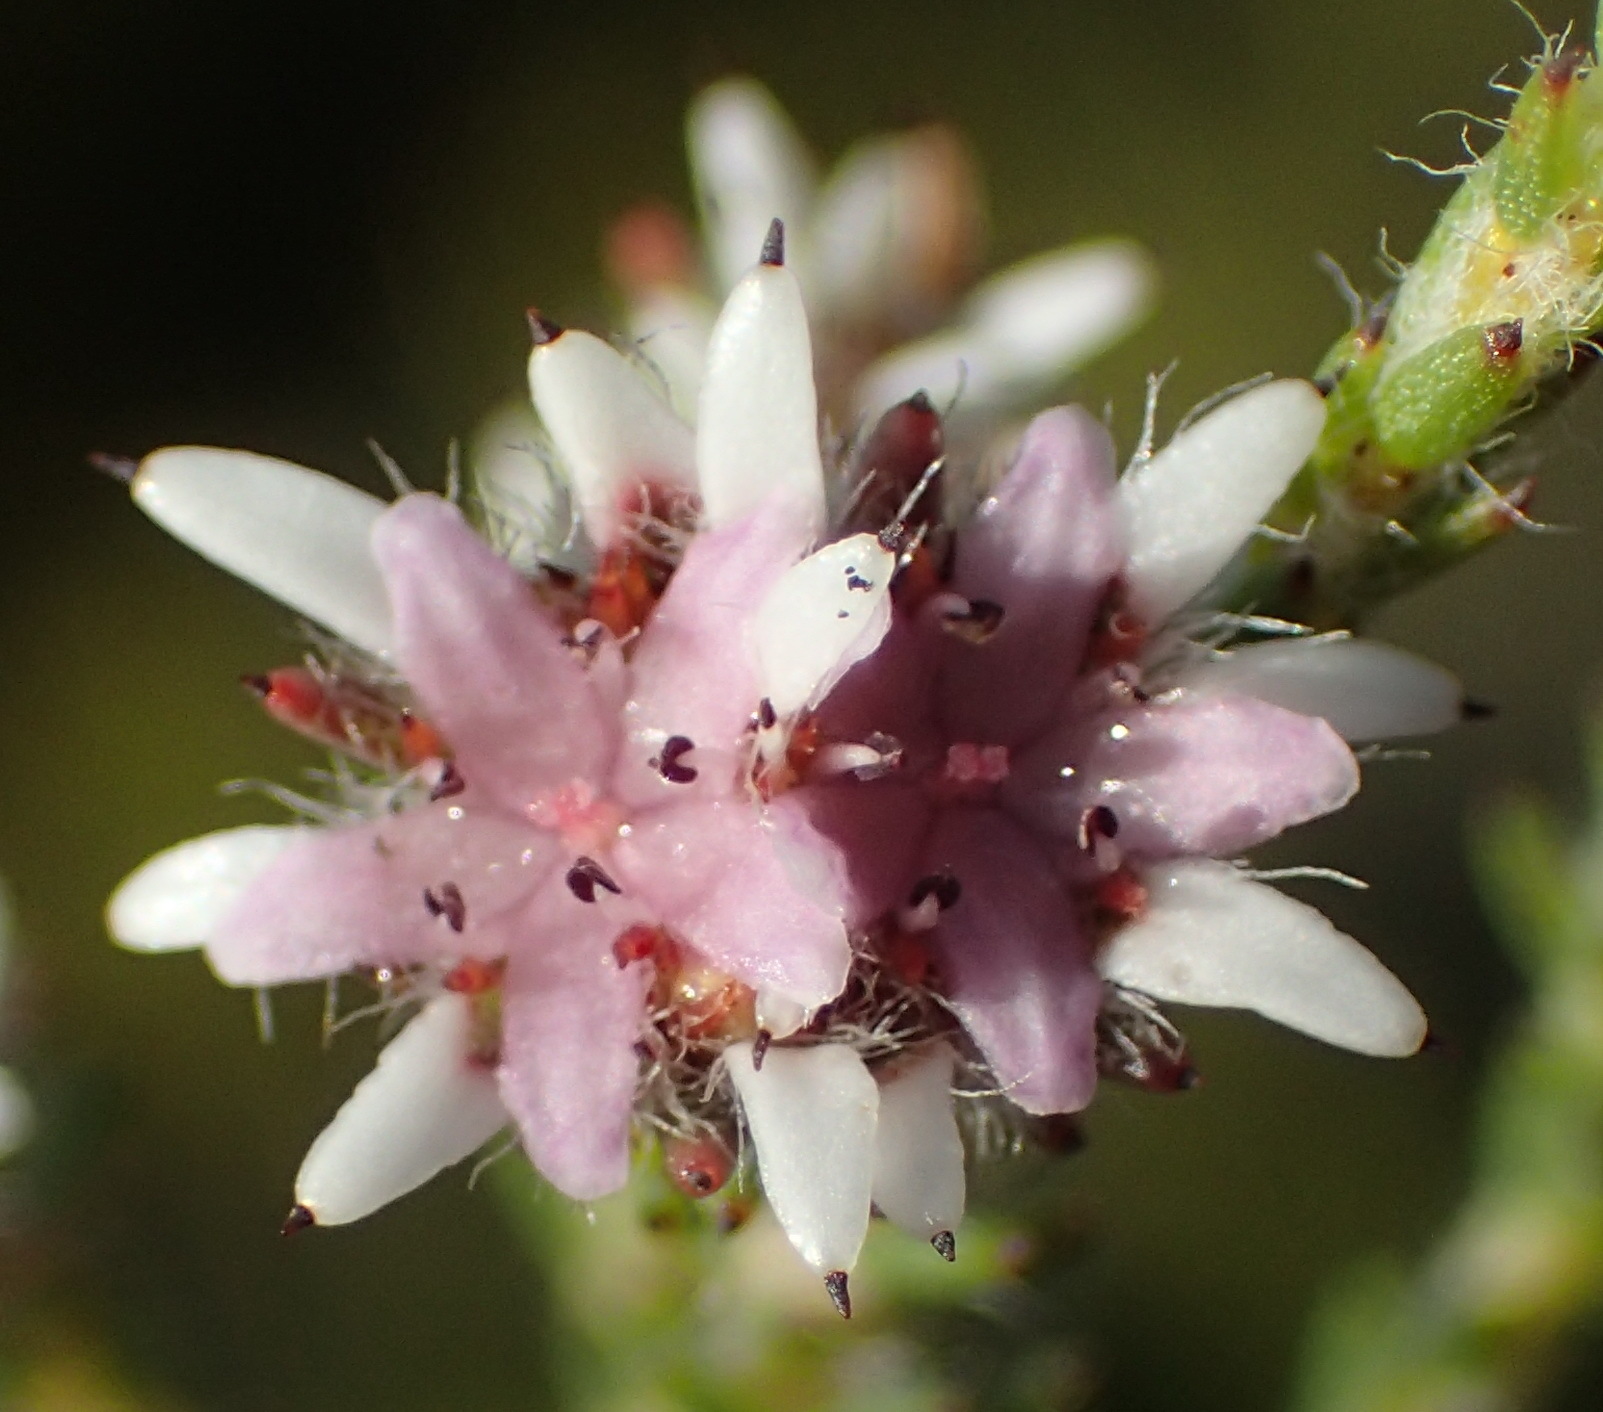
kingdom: Plantae
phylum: Tracheophyta
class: Magnoliopsida
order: Bruniales
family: Bruniaceae
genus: Staavia
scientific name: Staavia radiata
